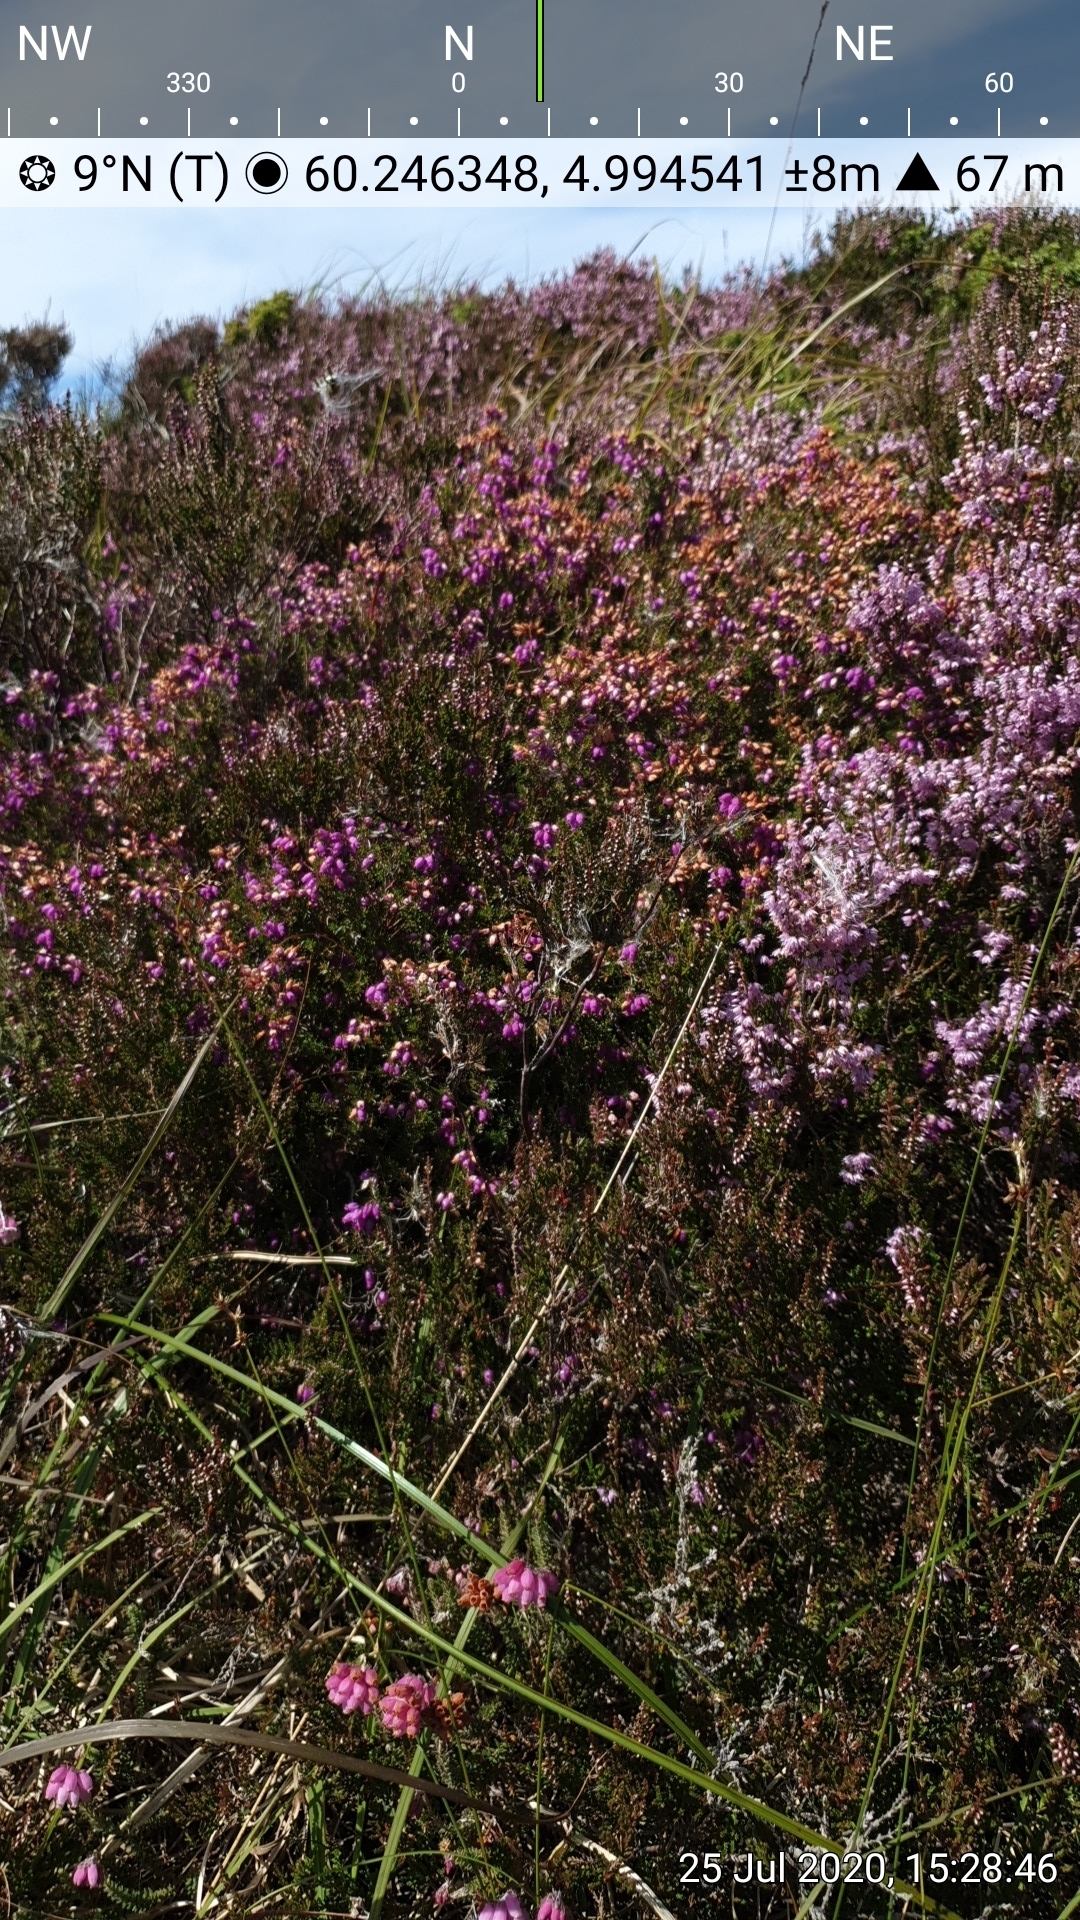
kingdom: Plantae
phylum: Tracheophyta
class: Magnoliopsida
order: Ericales
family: Ericaceae
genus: Calluna
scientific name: Calluna vulgaris
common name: Heather
